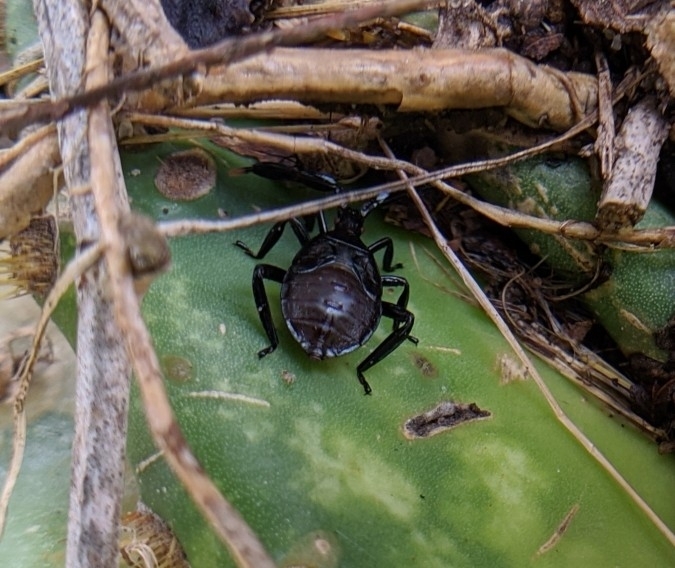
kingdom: Animalia
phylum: Arthropoda
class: Insecta
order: Hemiptera
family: Coreidae
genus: Chelinidea
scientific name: Chelinidea vittiger
